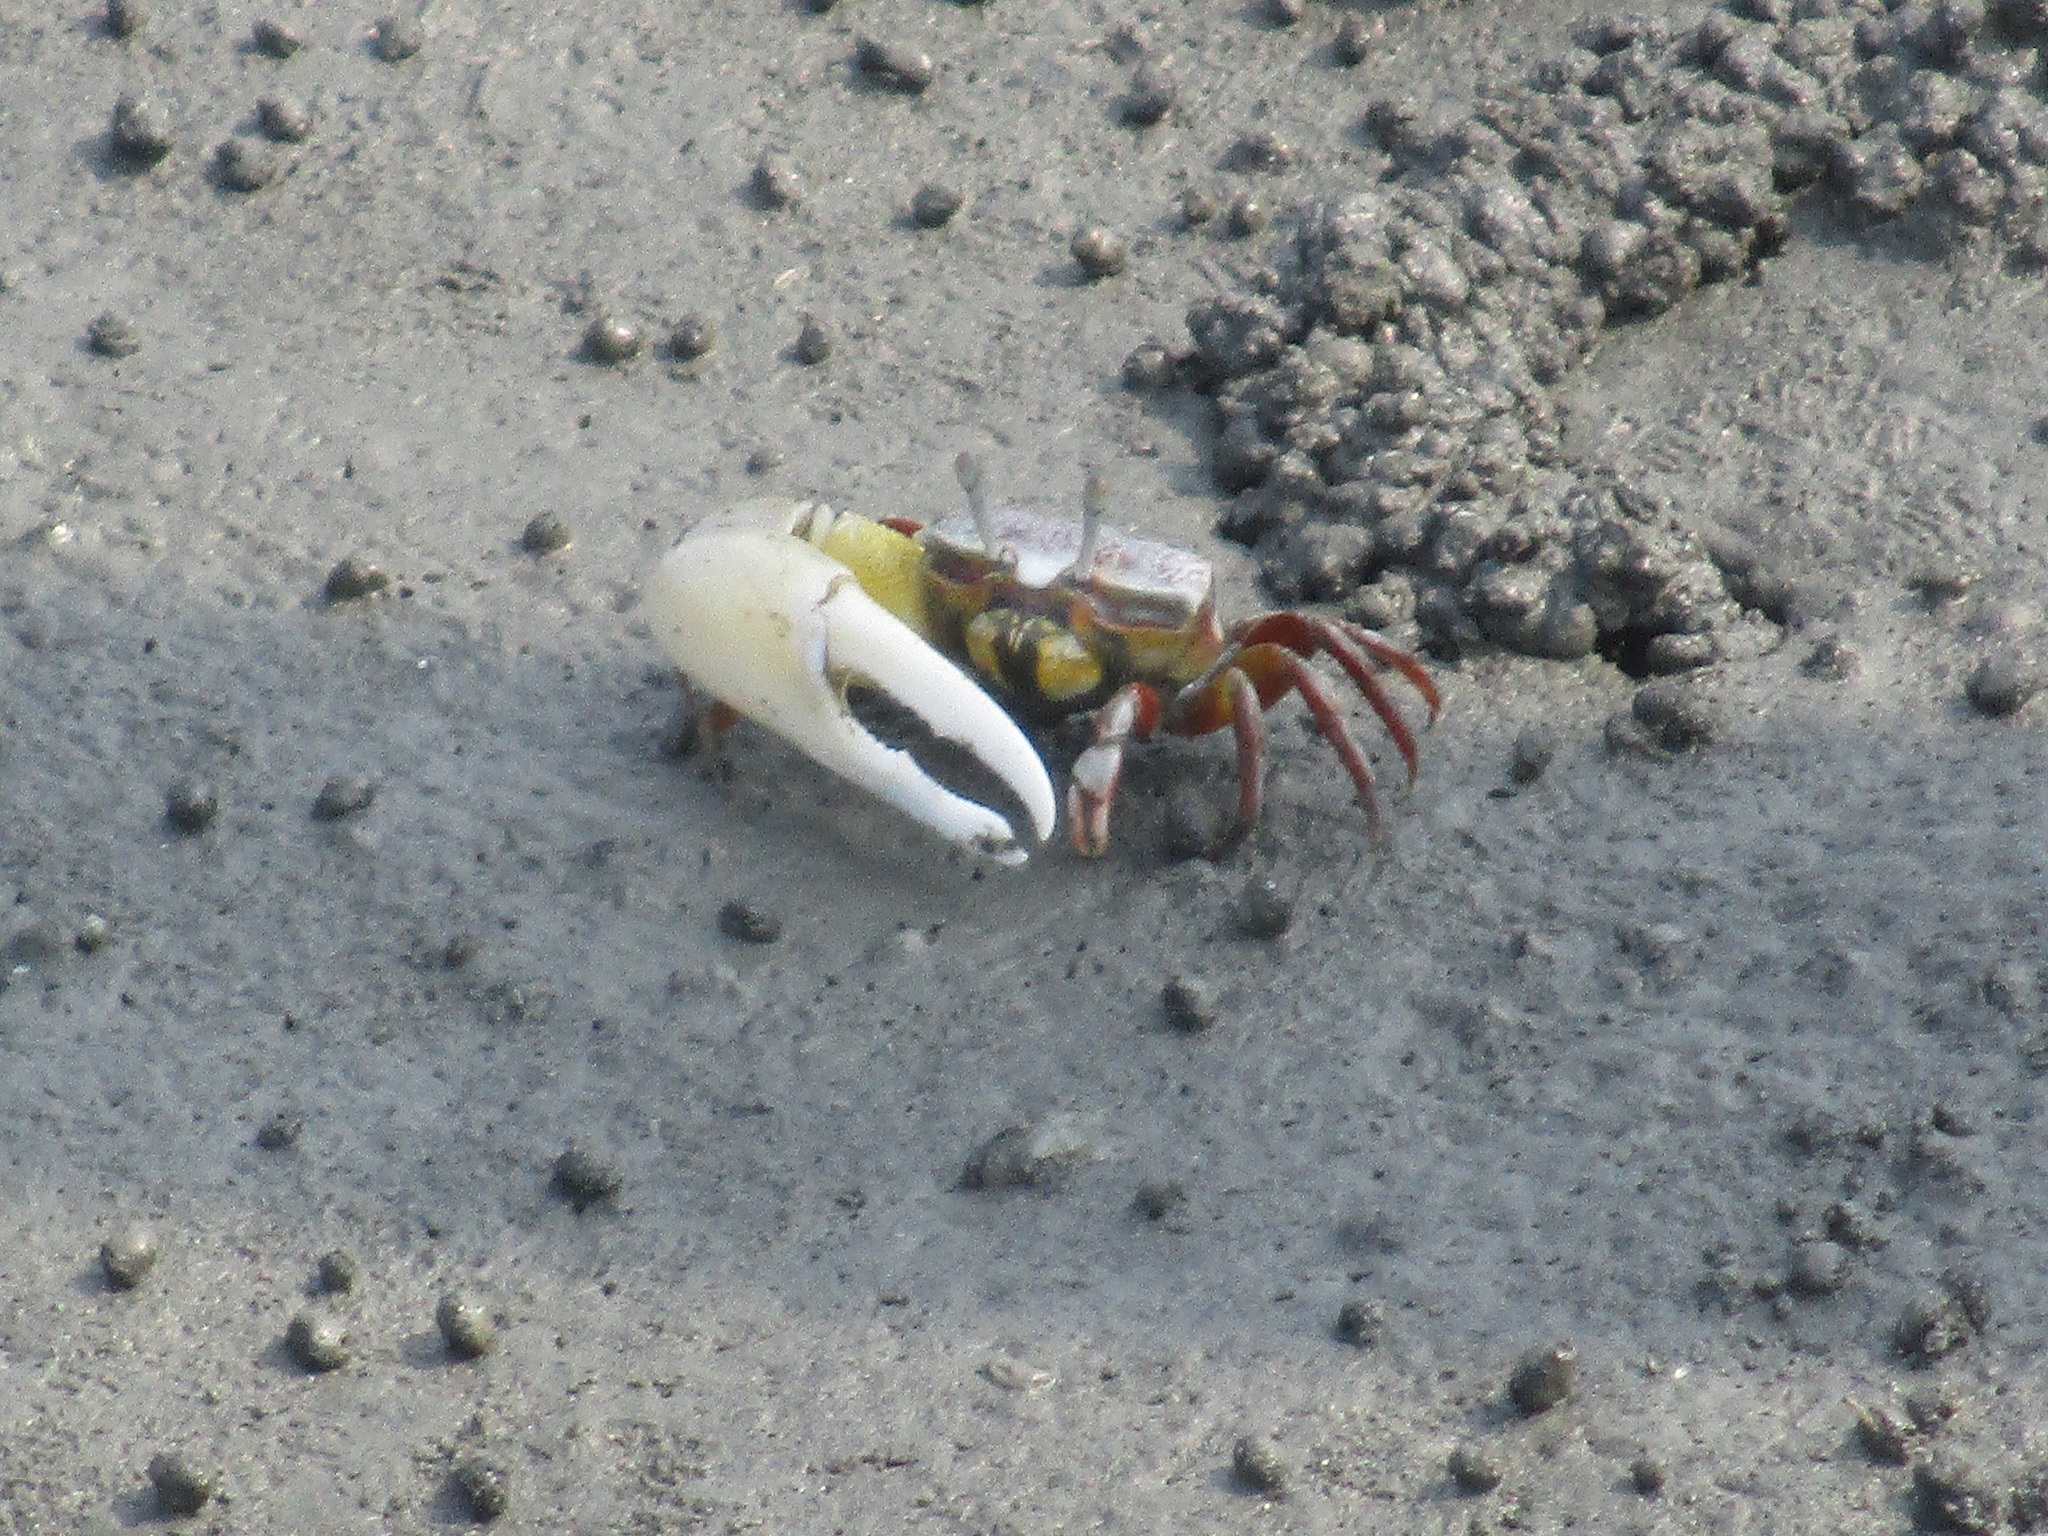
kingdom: Animalia
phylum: Arthropoda
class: Malacostraca
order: Decapoda
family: Ocypodidae
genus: Austruca
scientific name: Austruca lactea
